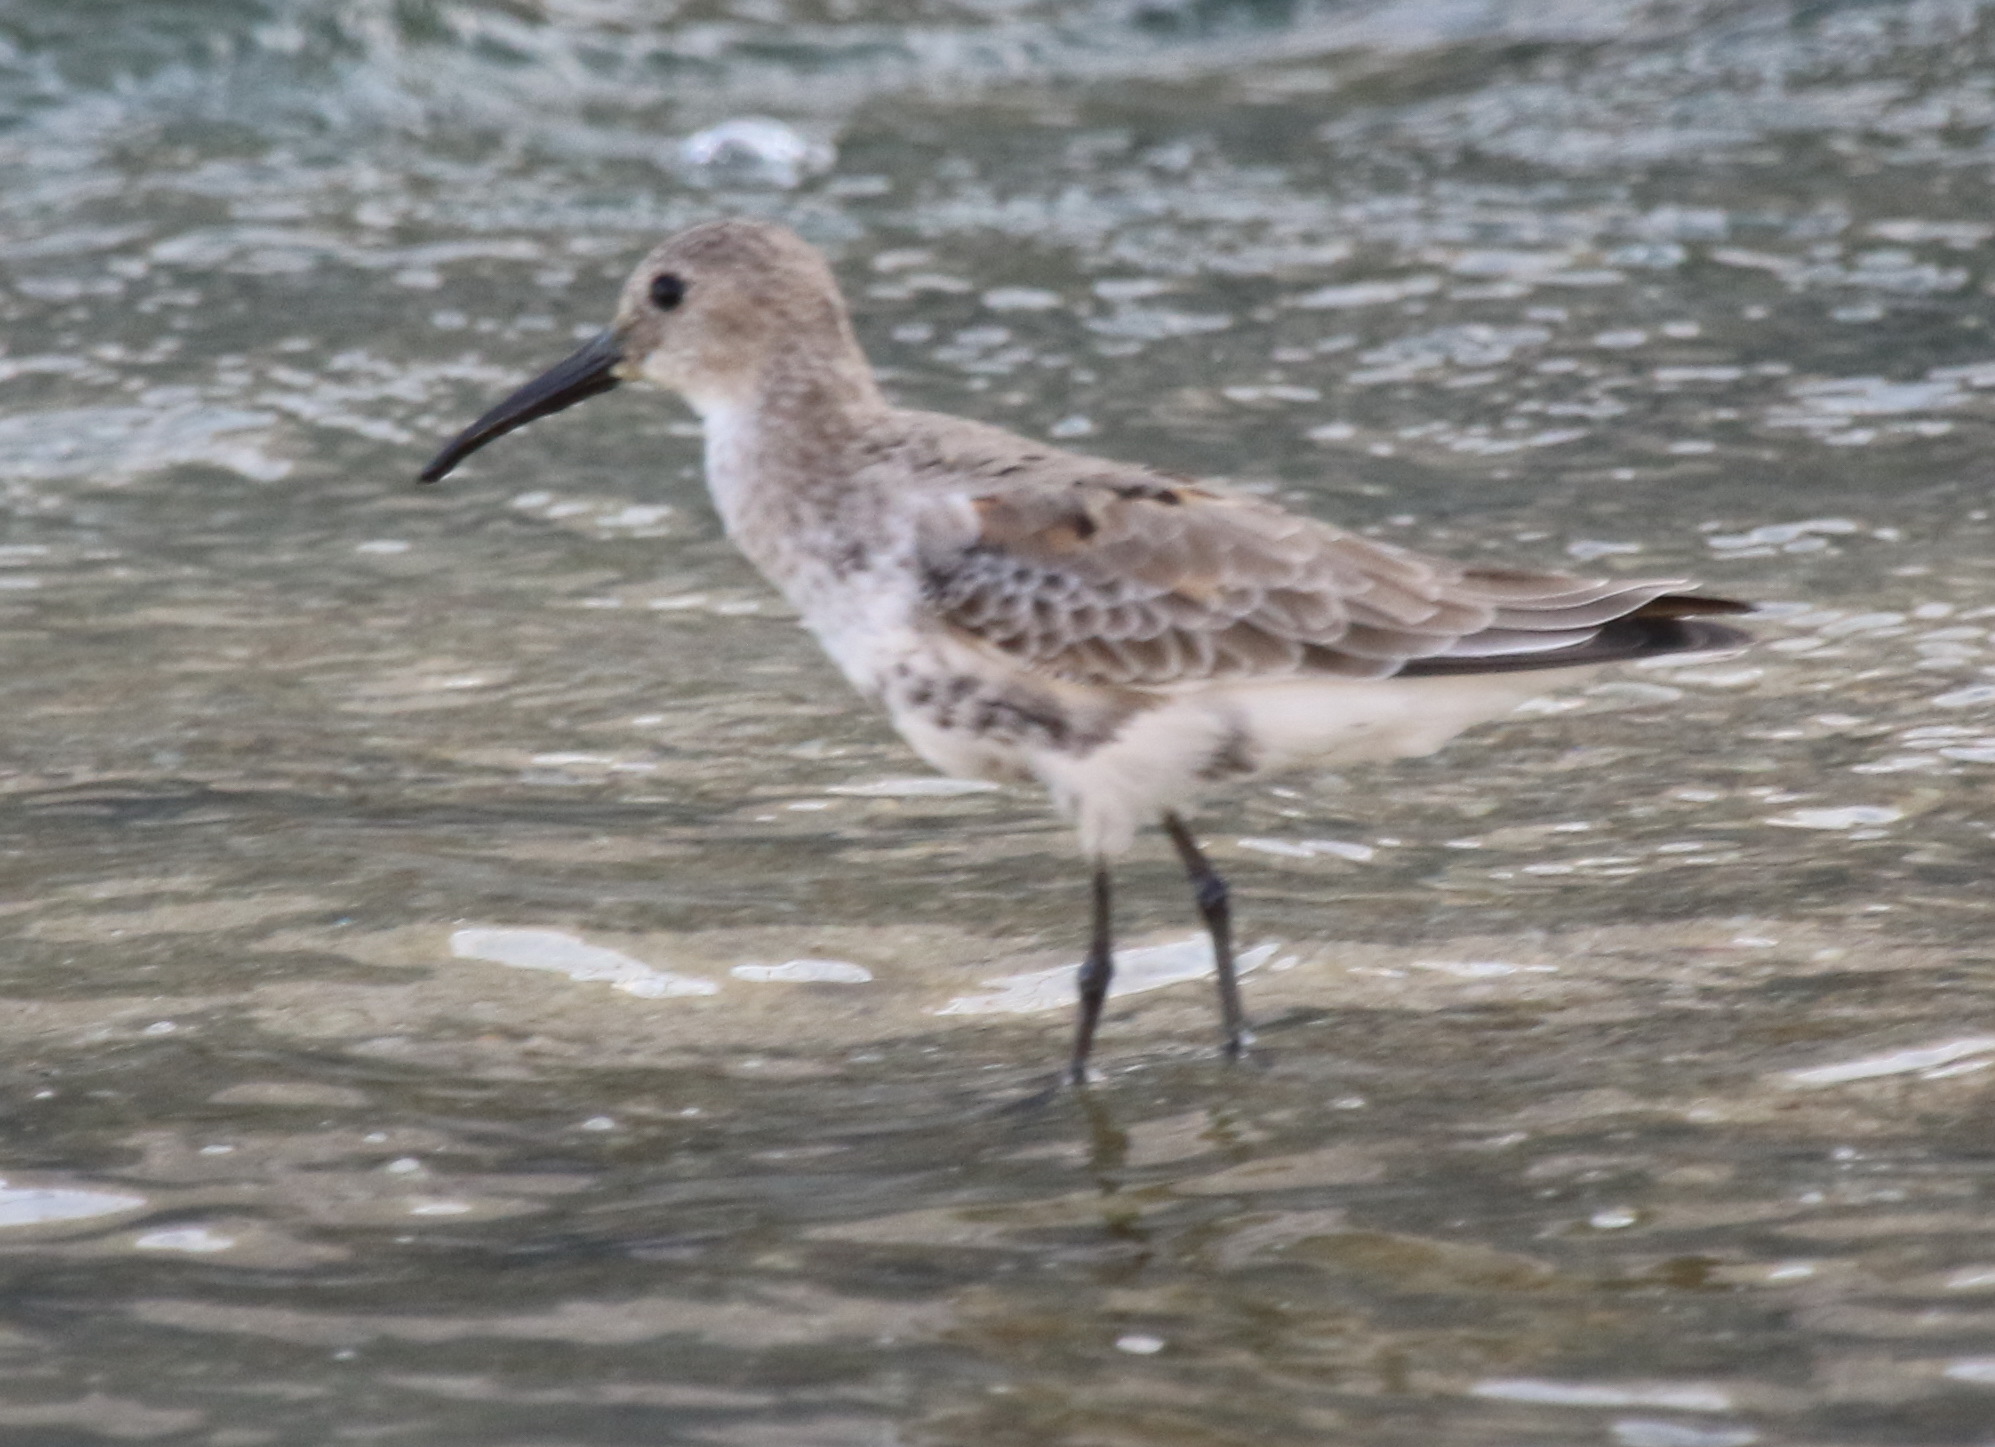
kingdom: Animalia
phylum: Chordata
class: Aves
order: Charadriiformes
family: Scolopacidae
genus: Calidris
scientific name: Calidris alpina
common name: Dunlin
